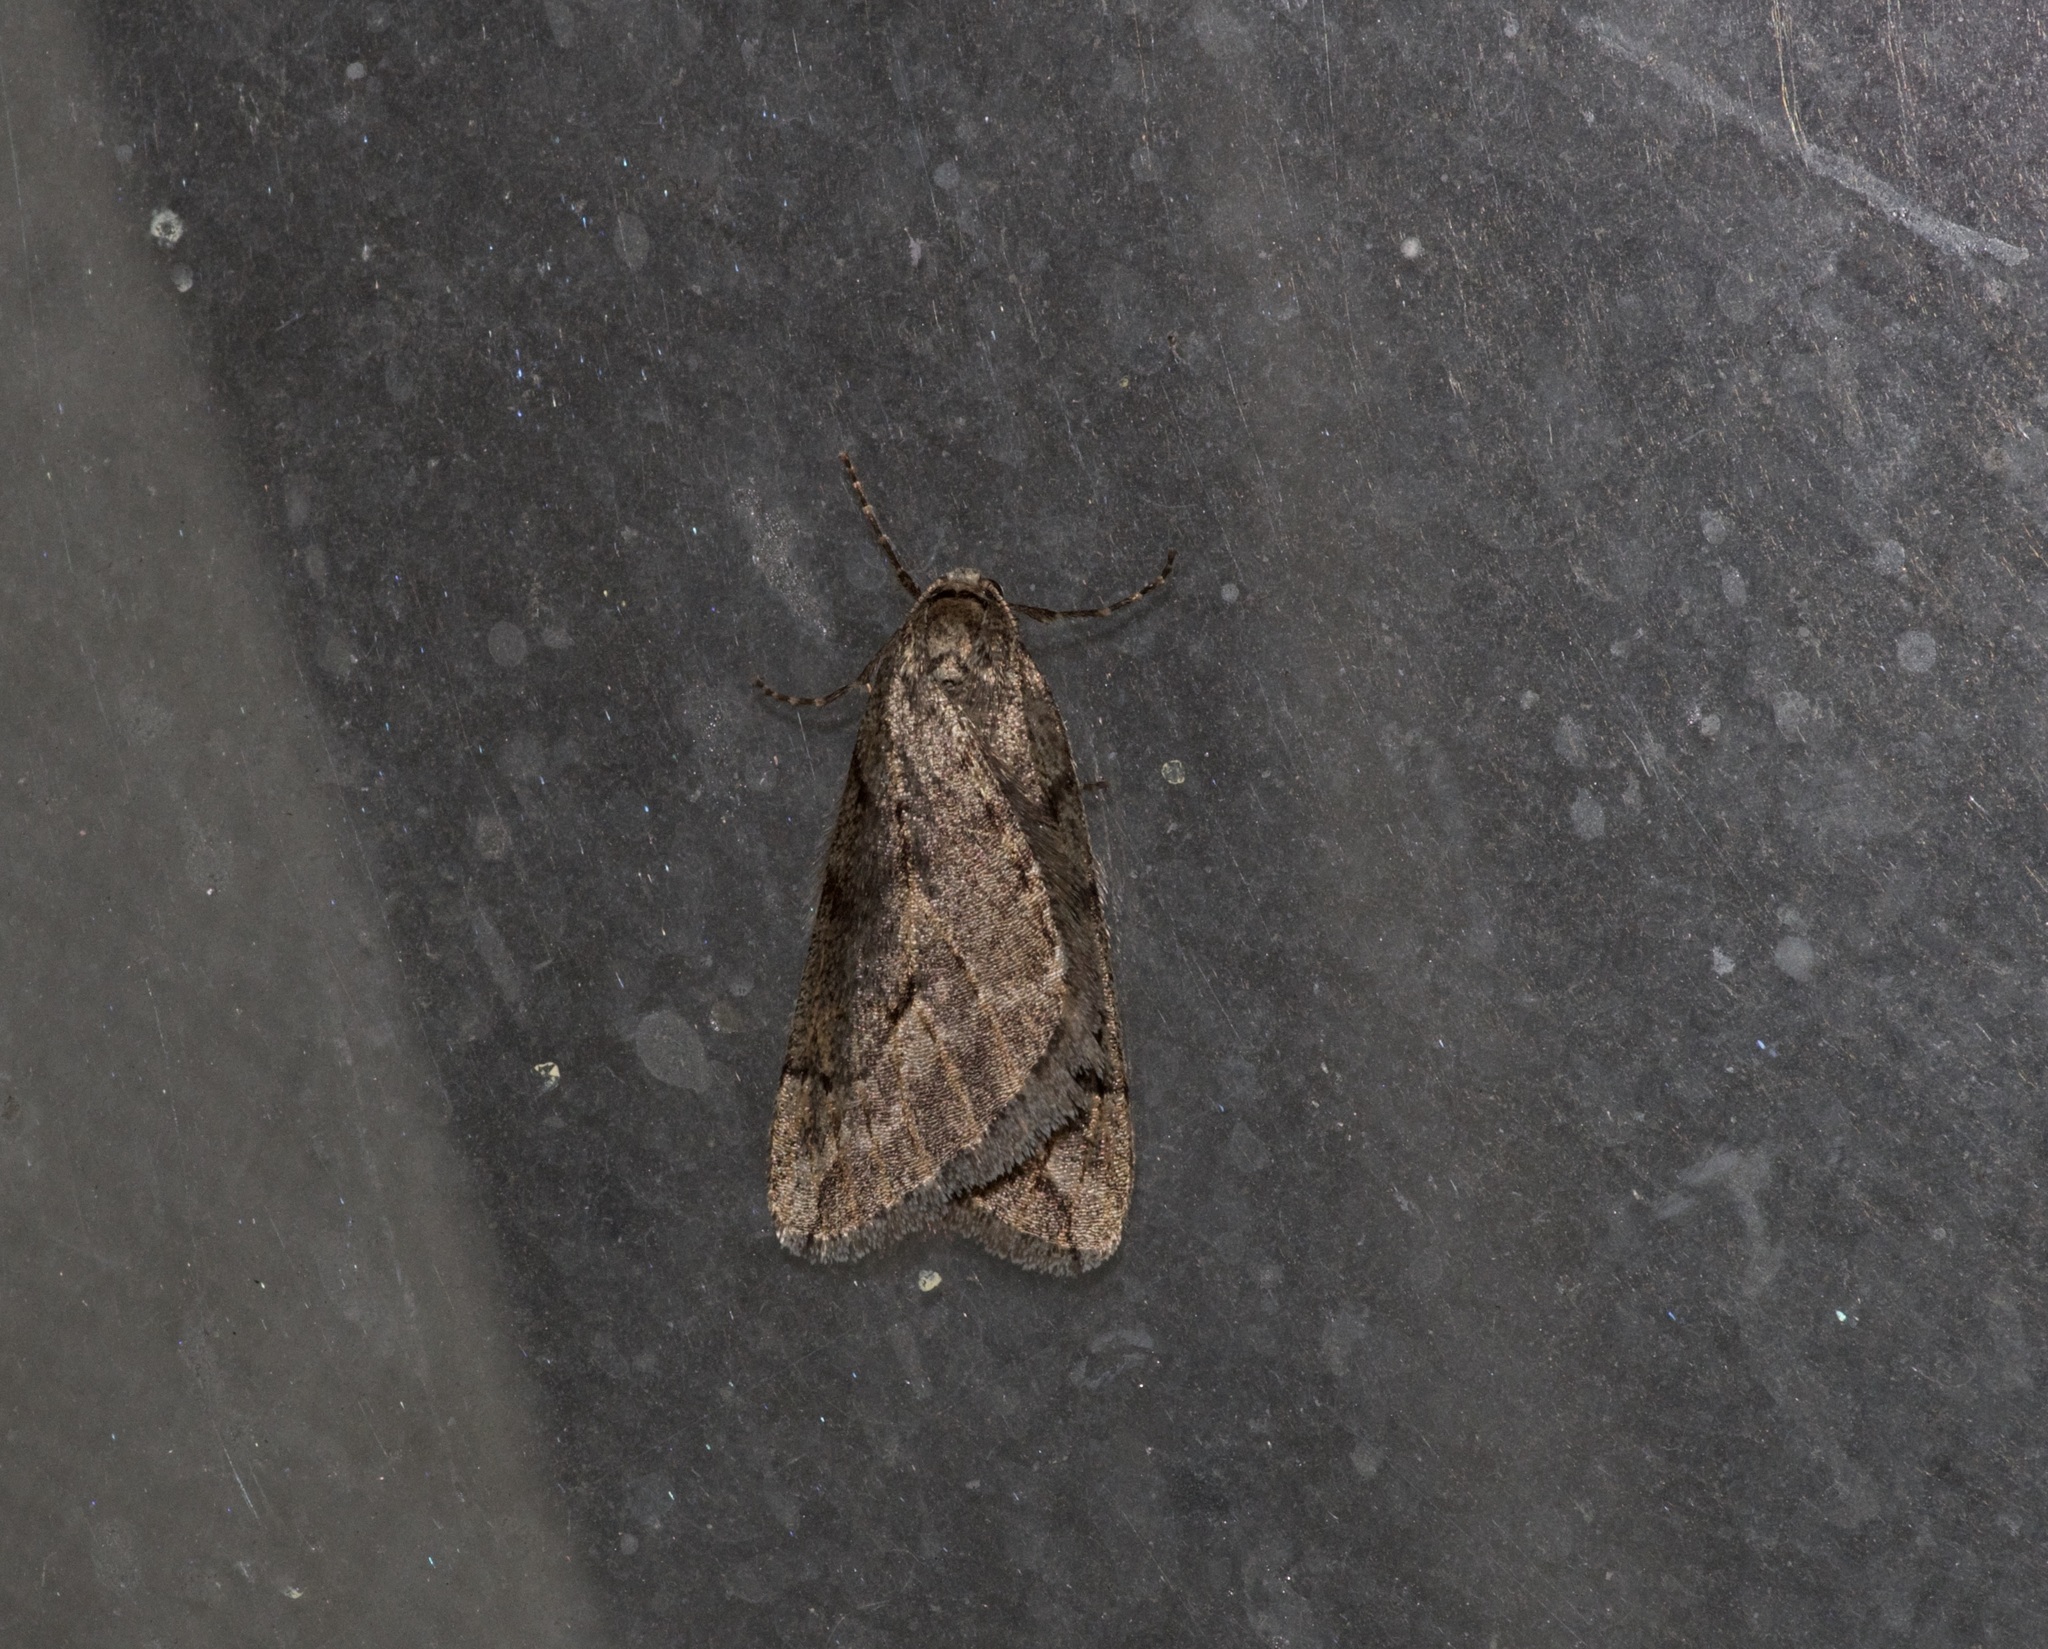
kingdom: Animalia
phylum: Arthropoda
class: Insecta
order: Lepidoptera
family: Geometridae
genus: Paleacrita
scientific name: Paleacrita vernata
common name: Spring cankerworm
